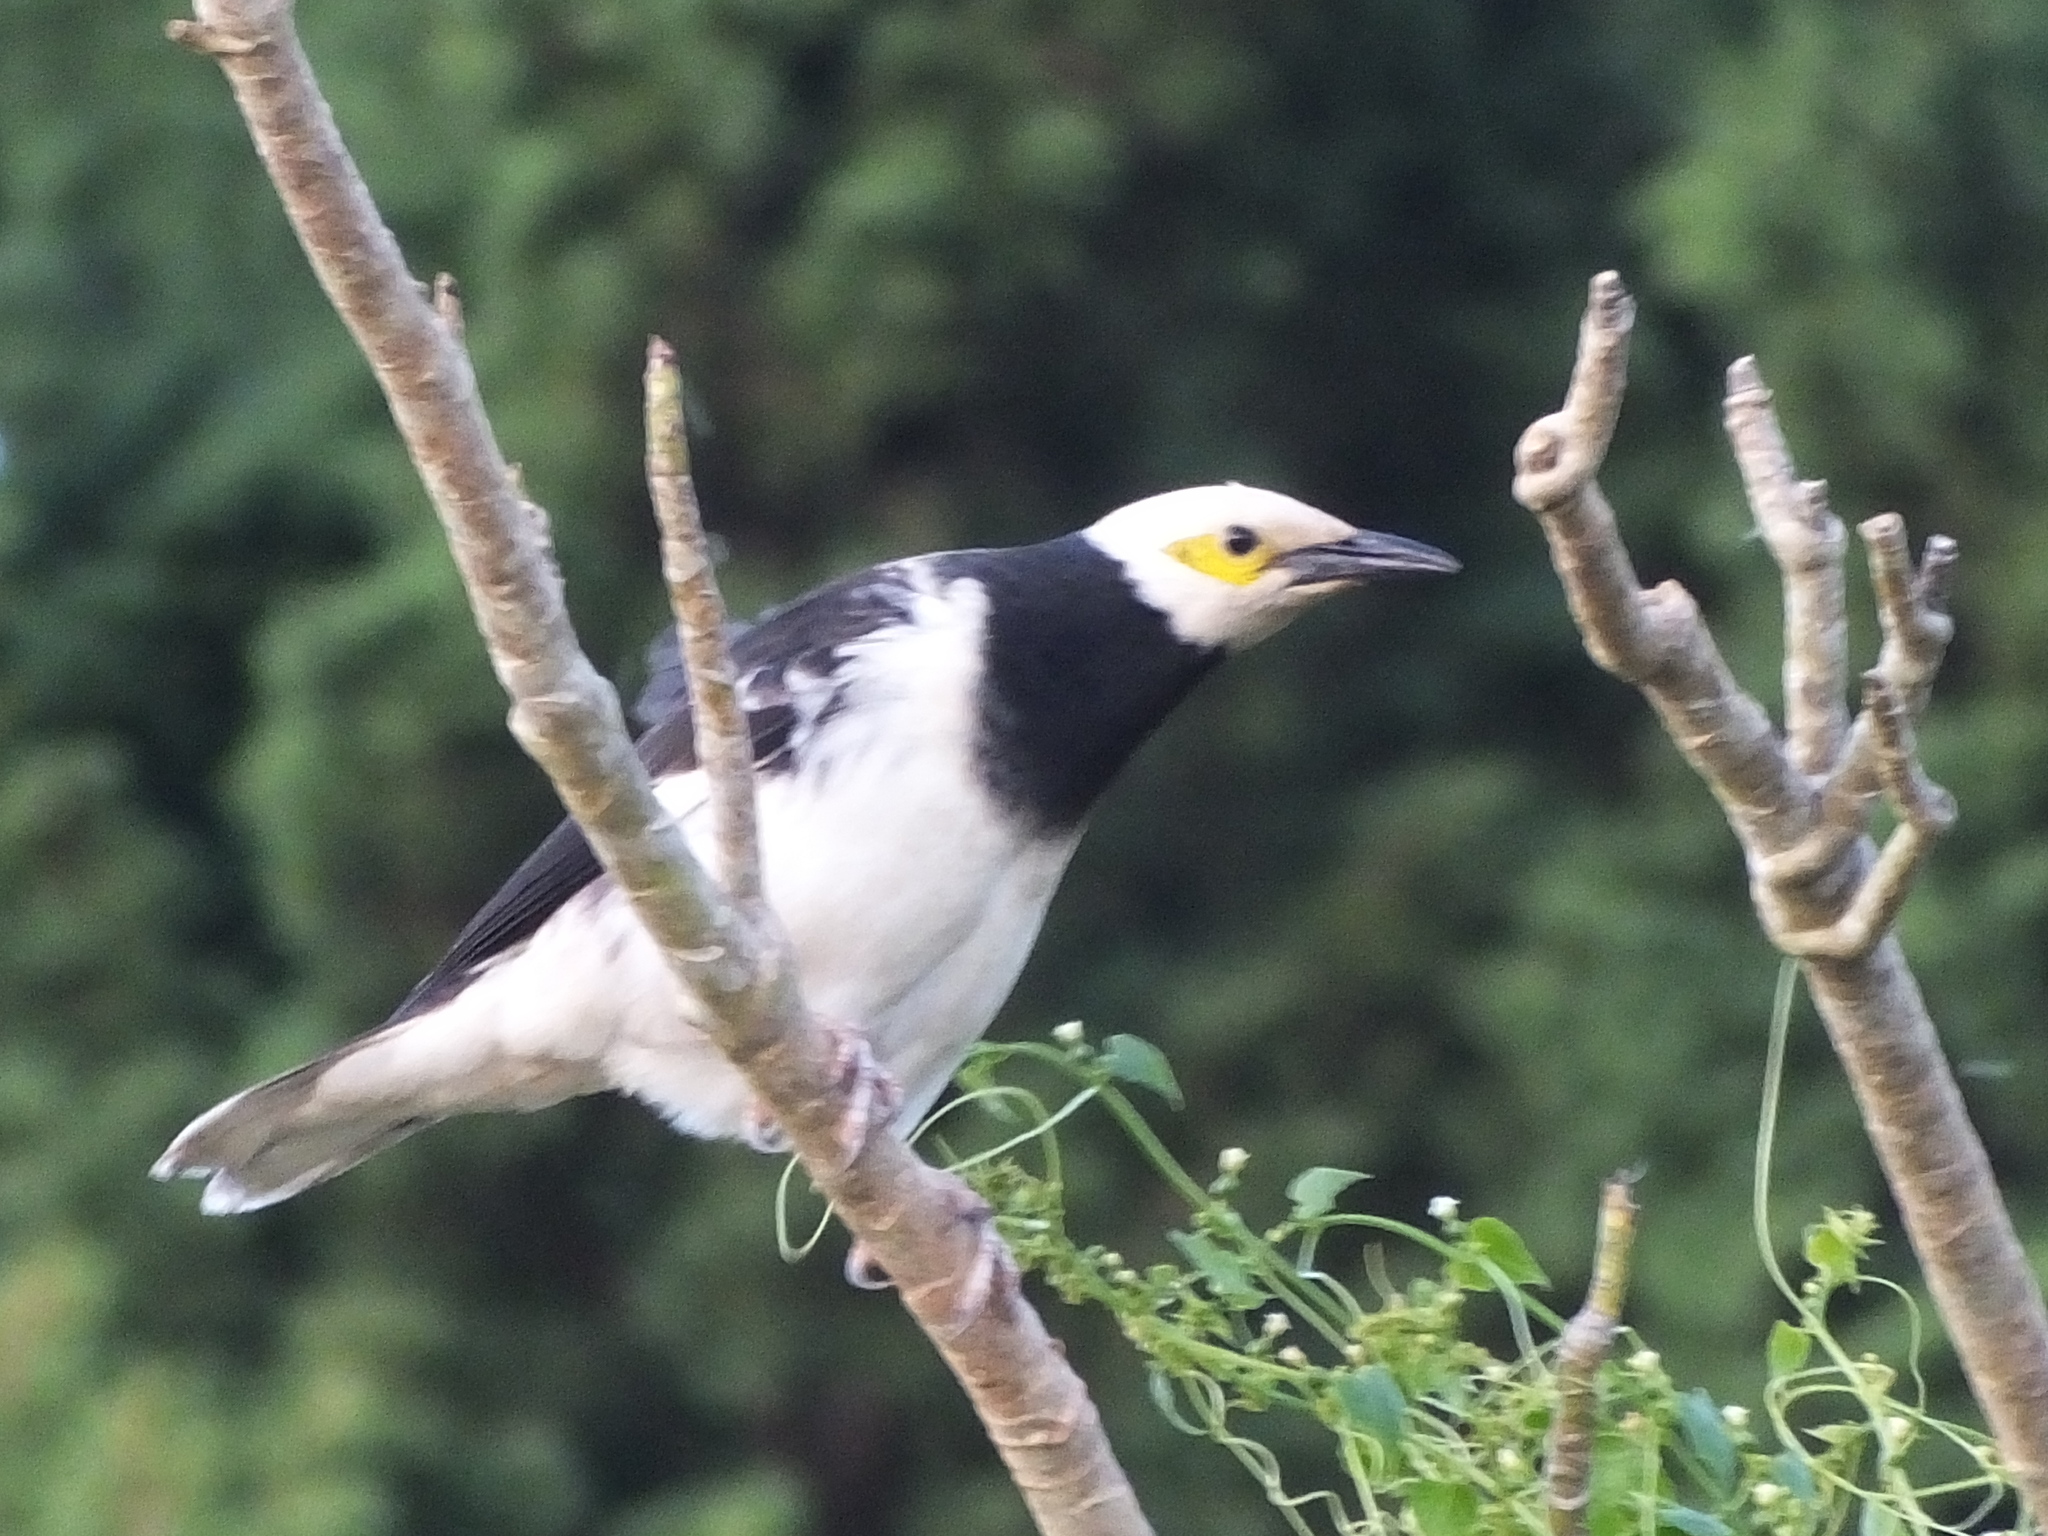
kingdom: Animalia
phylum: Chordata
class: Aves
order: Passeriformes
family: Sturnidae
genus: Gracupica
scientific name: Gracupica nigricollis
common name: Black-collared starling
